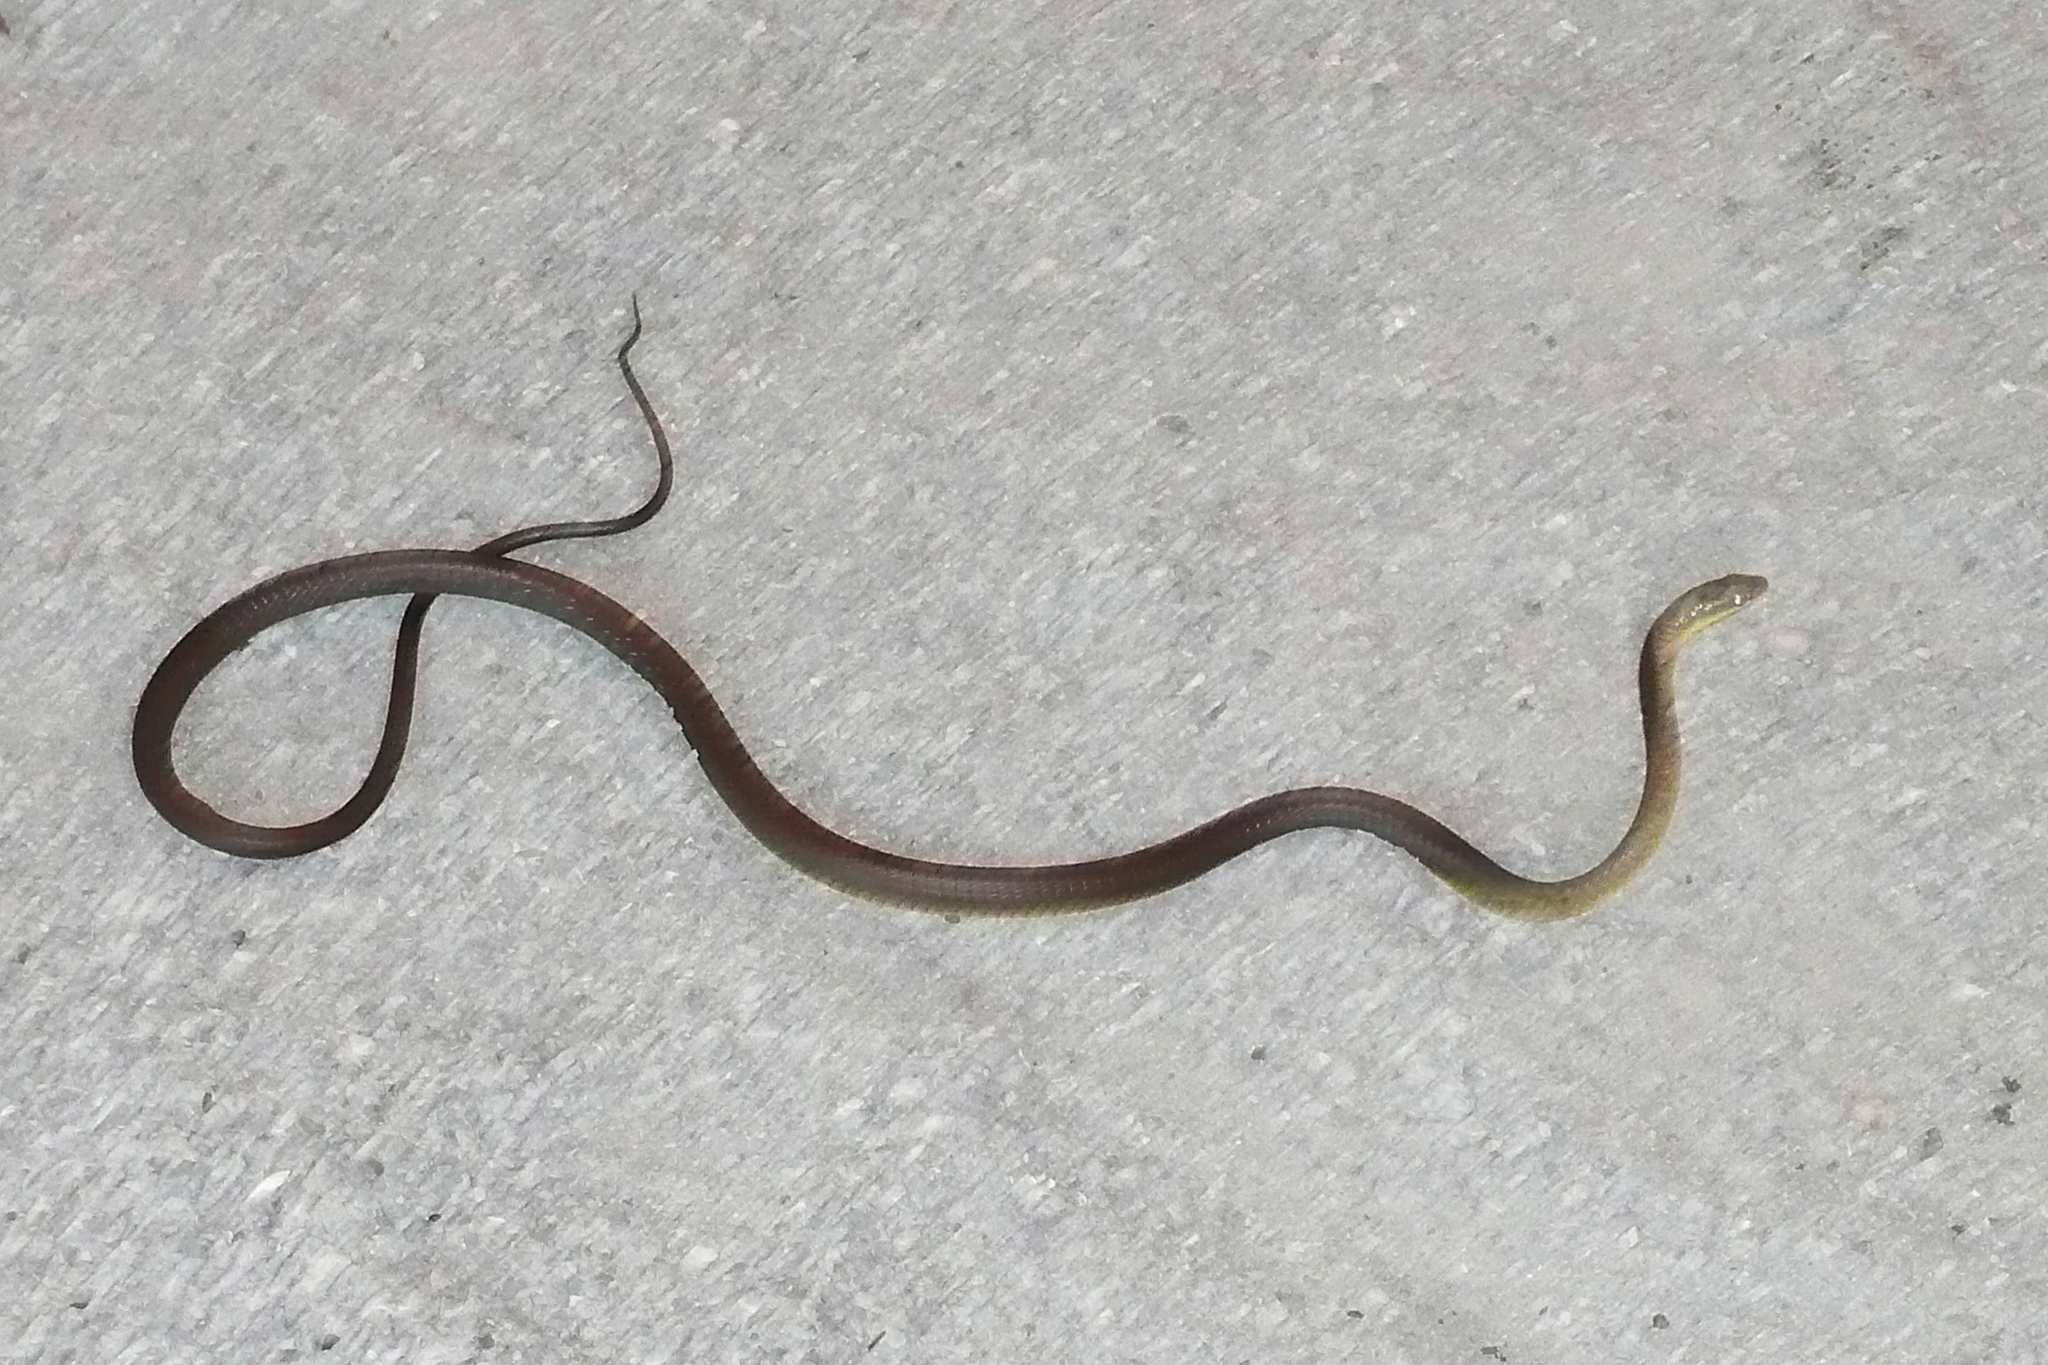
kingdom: Animalia
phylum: Chordata
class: Squamata
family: Colubridae
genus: Dendrelaphis
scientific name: Dendrelaphis punctulatus
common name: Common tree snake
